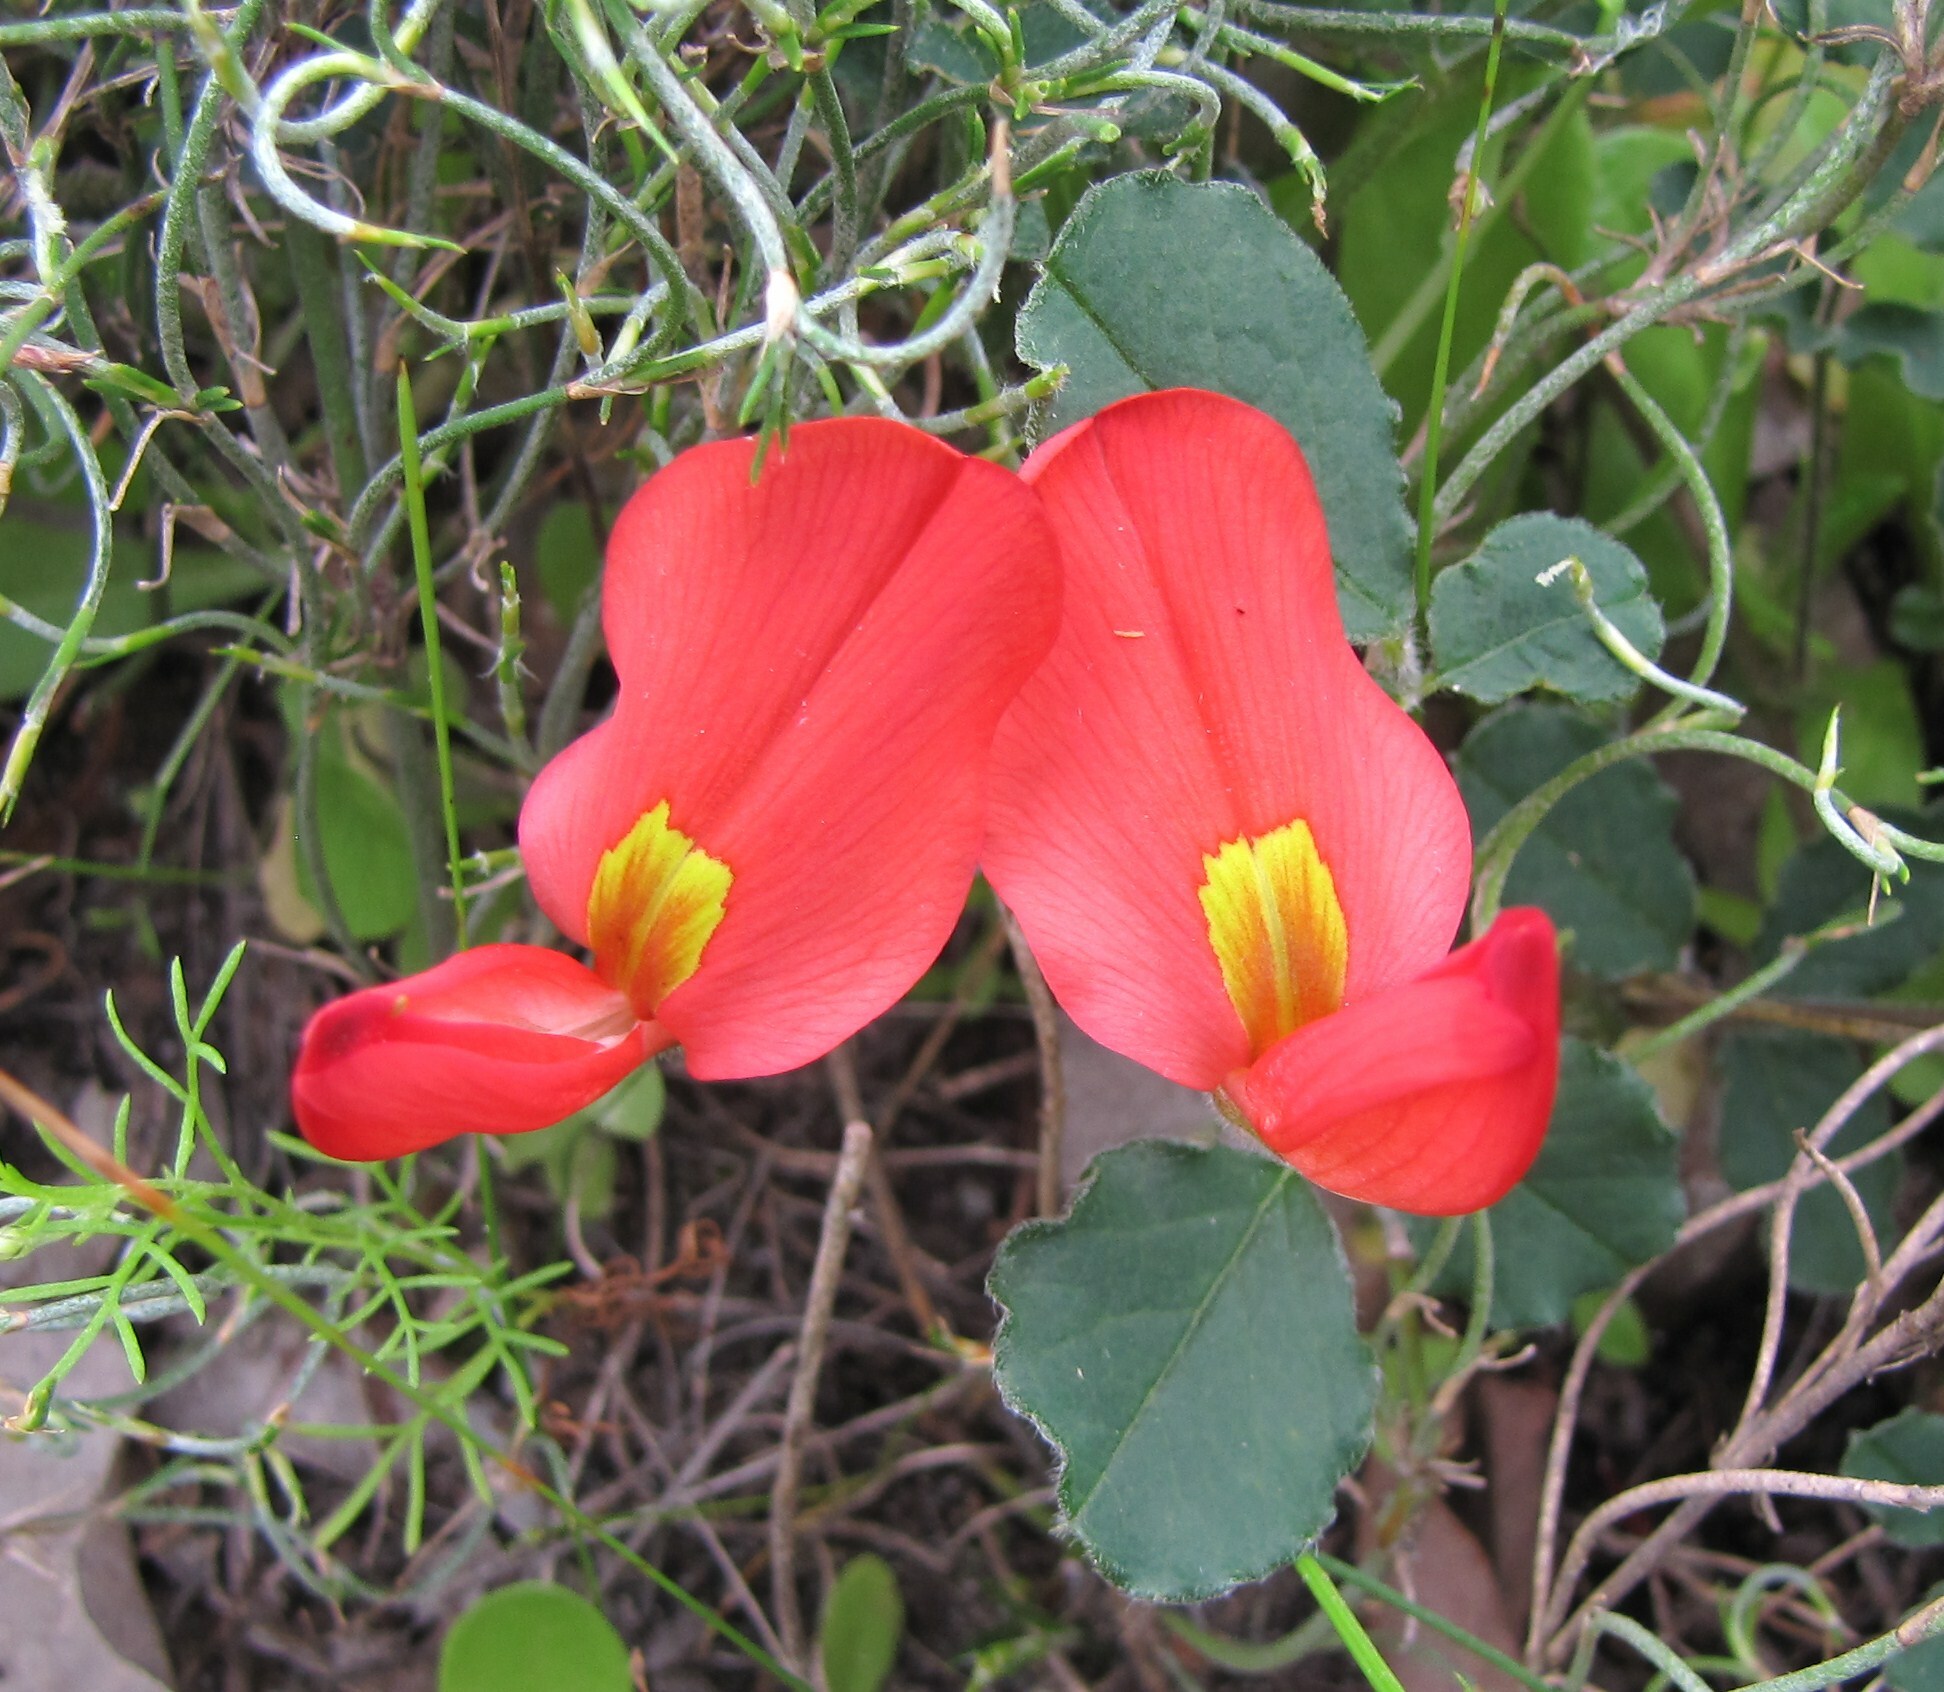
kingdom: Plantae
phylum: Tracheophyta
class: Magnoliopsida
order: Fabales
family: Fabaceae
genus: Kennedia
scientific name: Kennedia prostrata
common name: Running-postman
